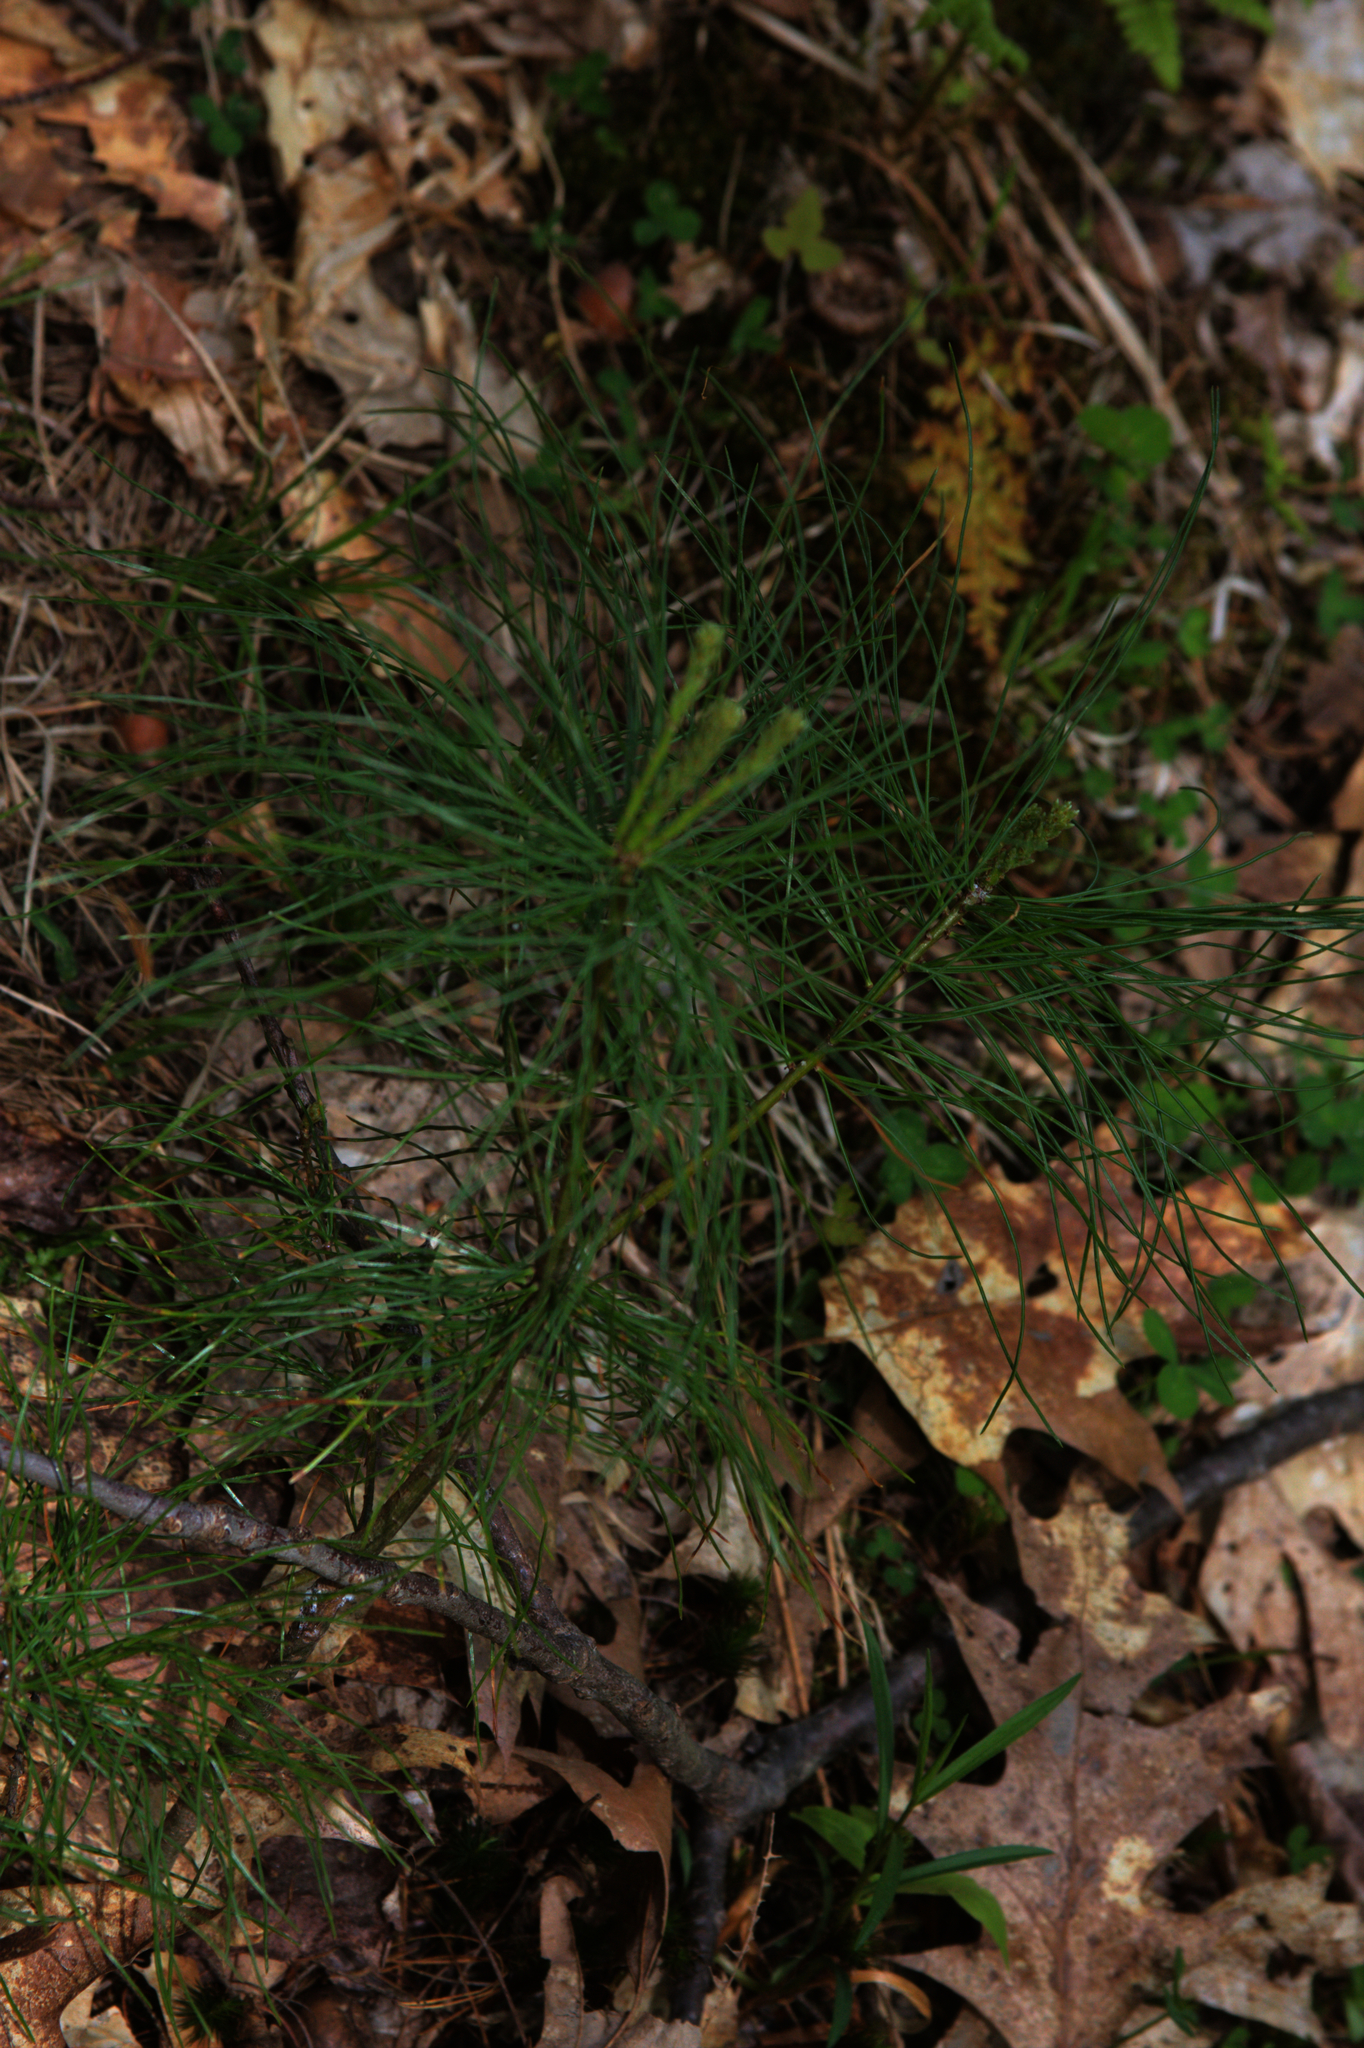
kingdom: Plantae
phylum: Tracheophyta
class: Pinopsida
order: Pinales
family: Pinaceae
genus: Pinus
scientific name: Pinus strobus
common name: Weymouth pine
